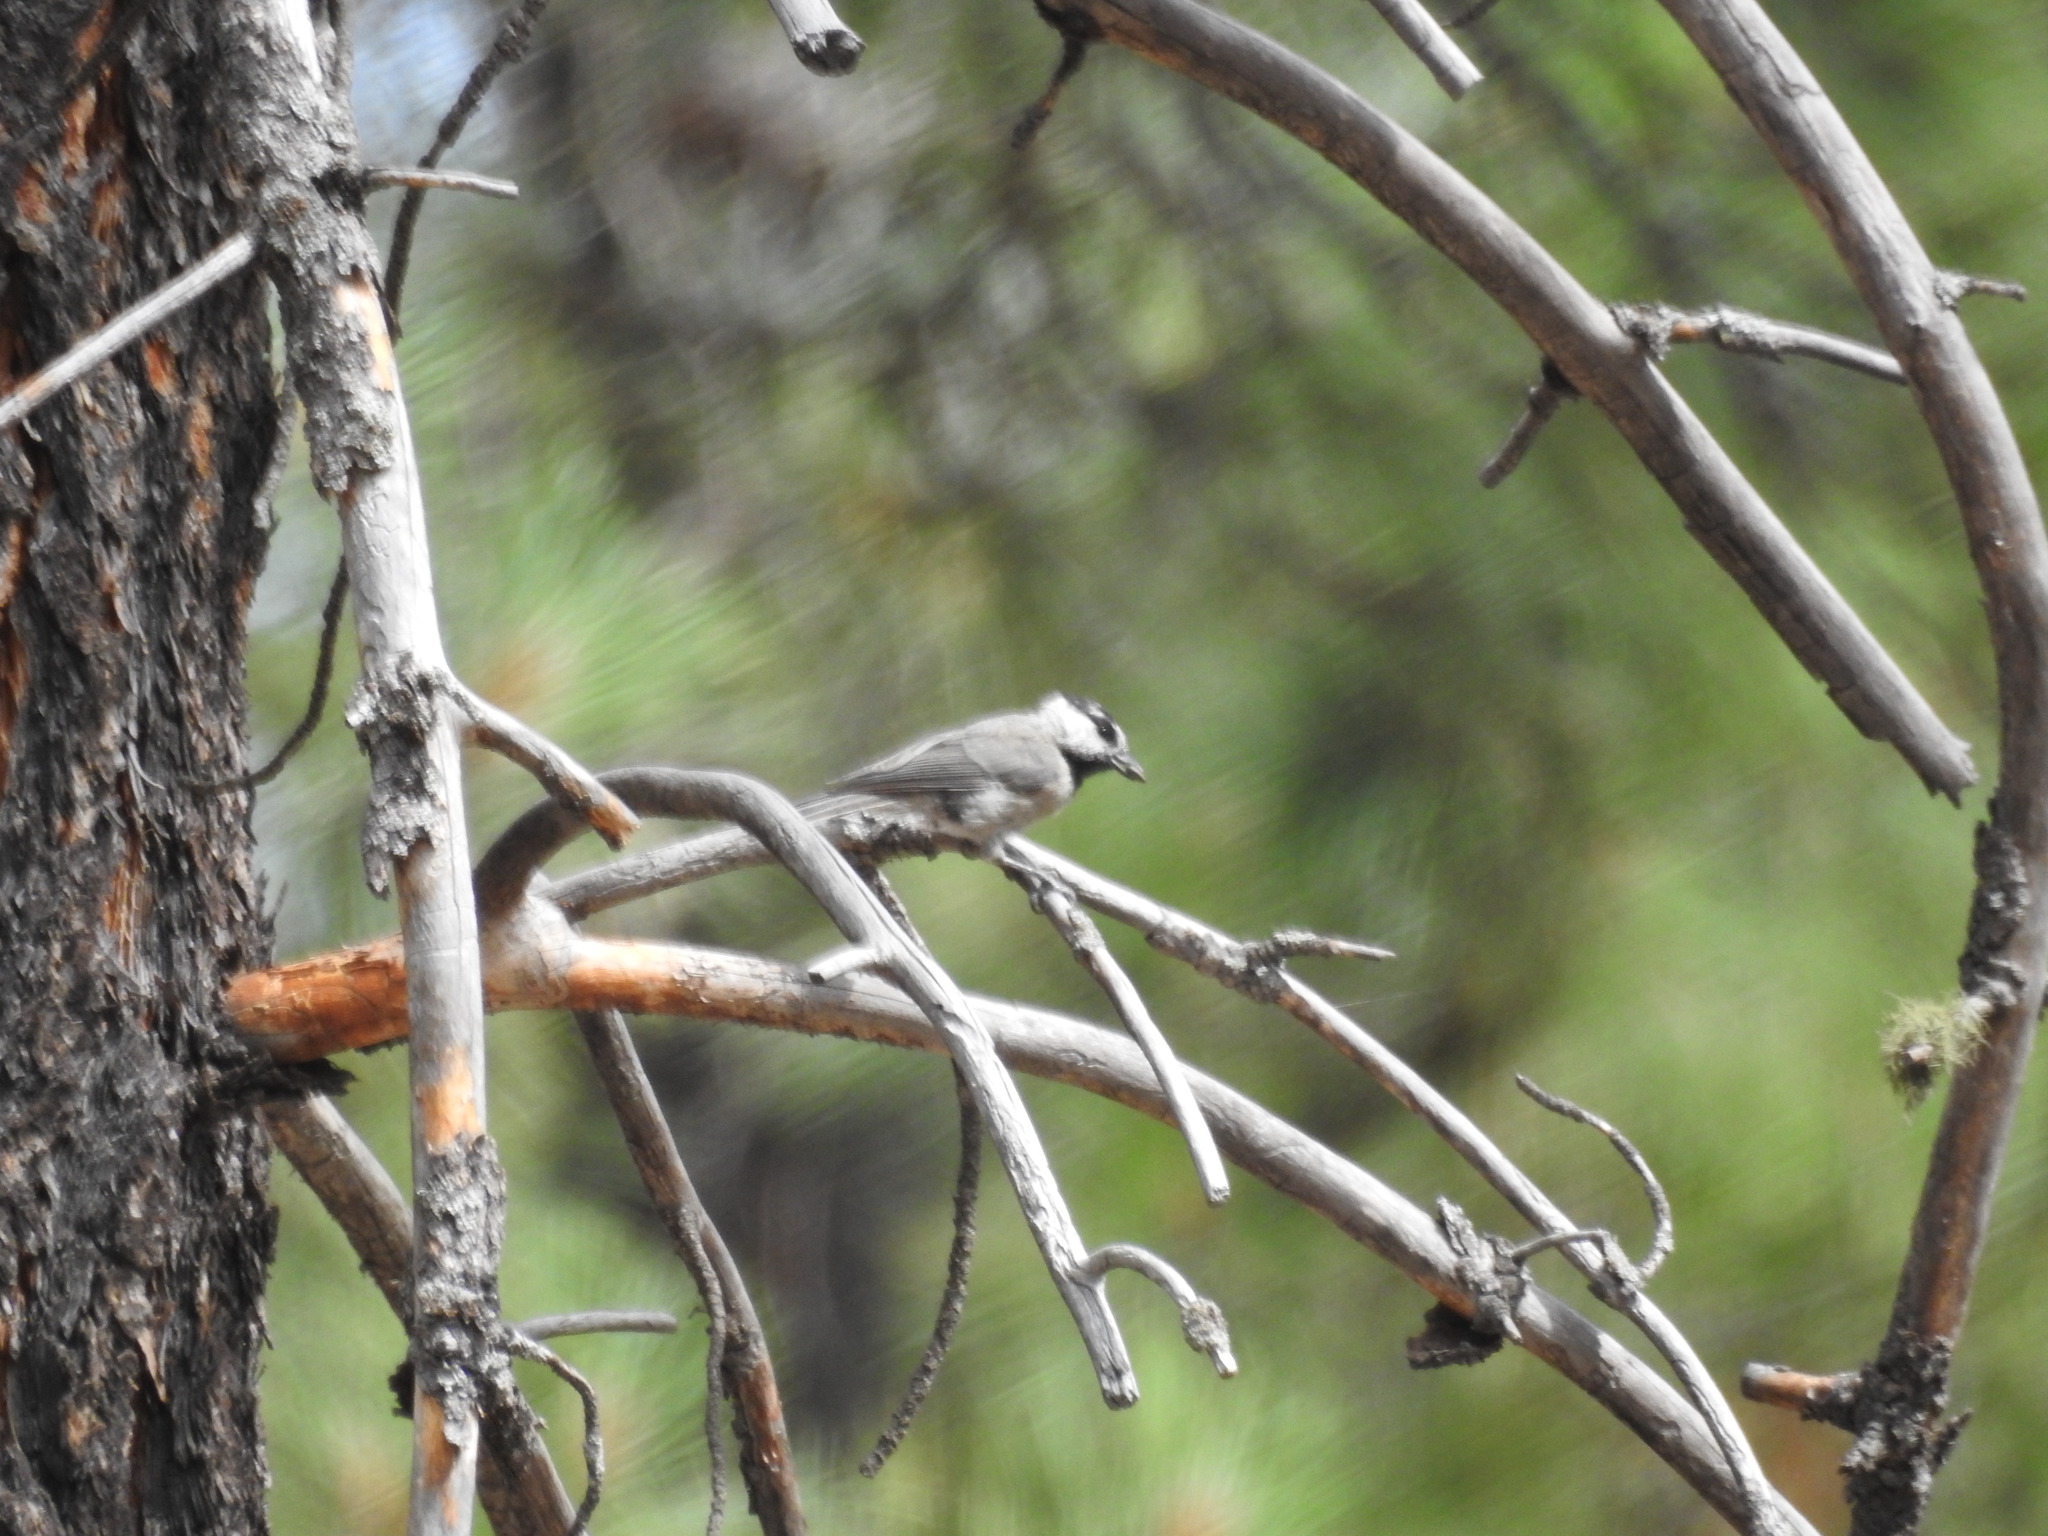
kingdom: Animalia
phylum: Chordata
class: Aves
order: Passeriformes
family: Paridae
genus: Poecile
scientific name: Poecile gambeli
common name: Mountain chickadee
